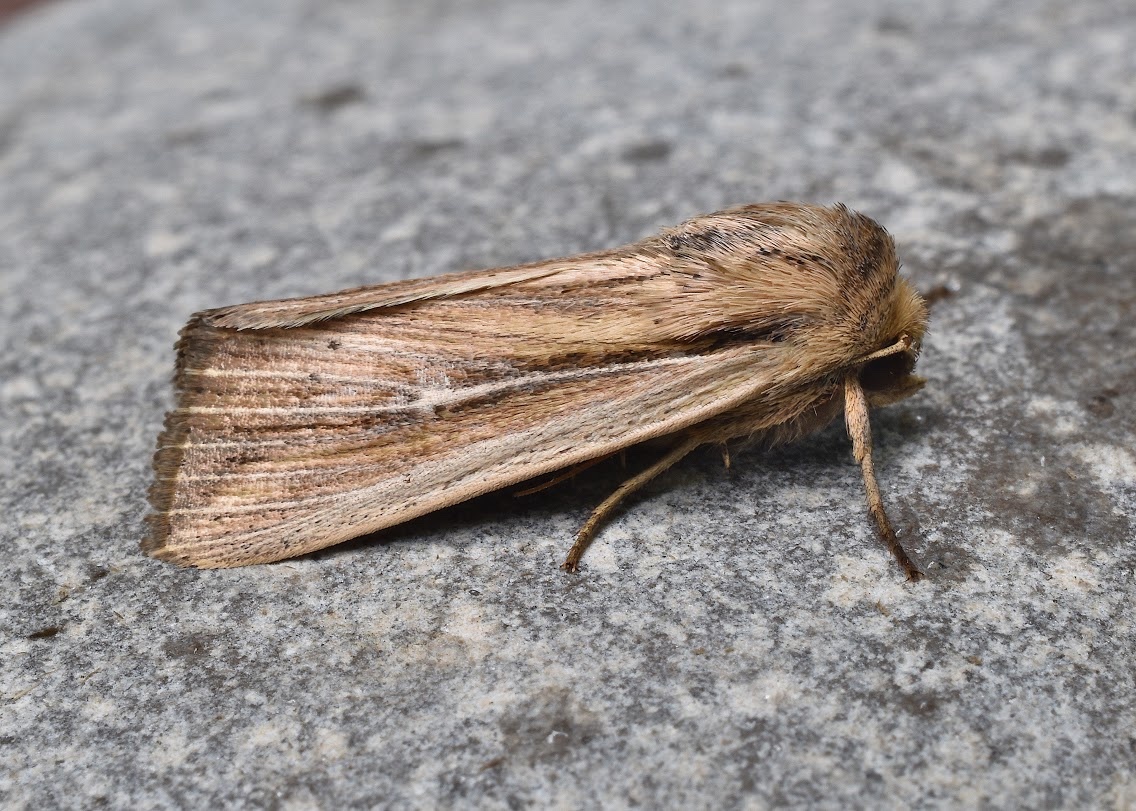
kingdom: Animalia
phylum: Arthropoda
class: Insecta
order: Lepidoptera
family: Noctuidae
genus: Leucania
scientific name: Leucania commoides
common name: Two-lined wainscot
